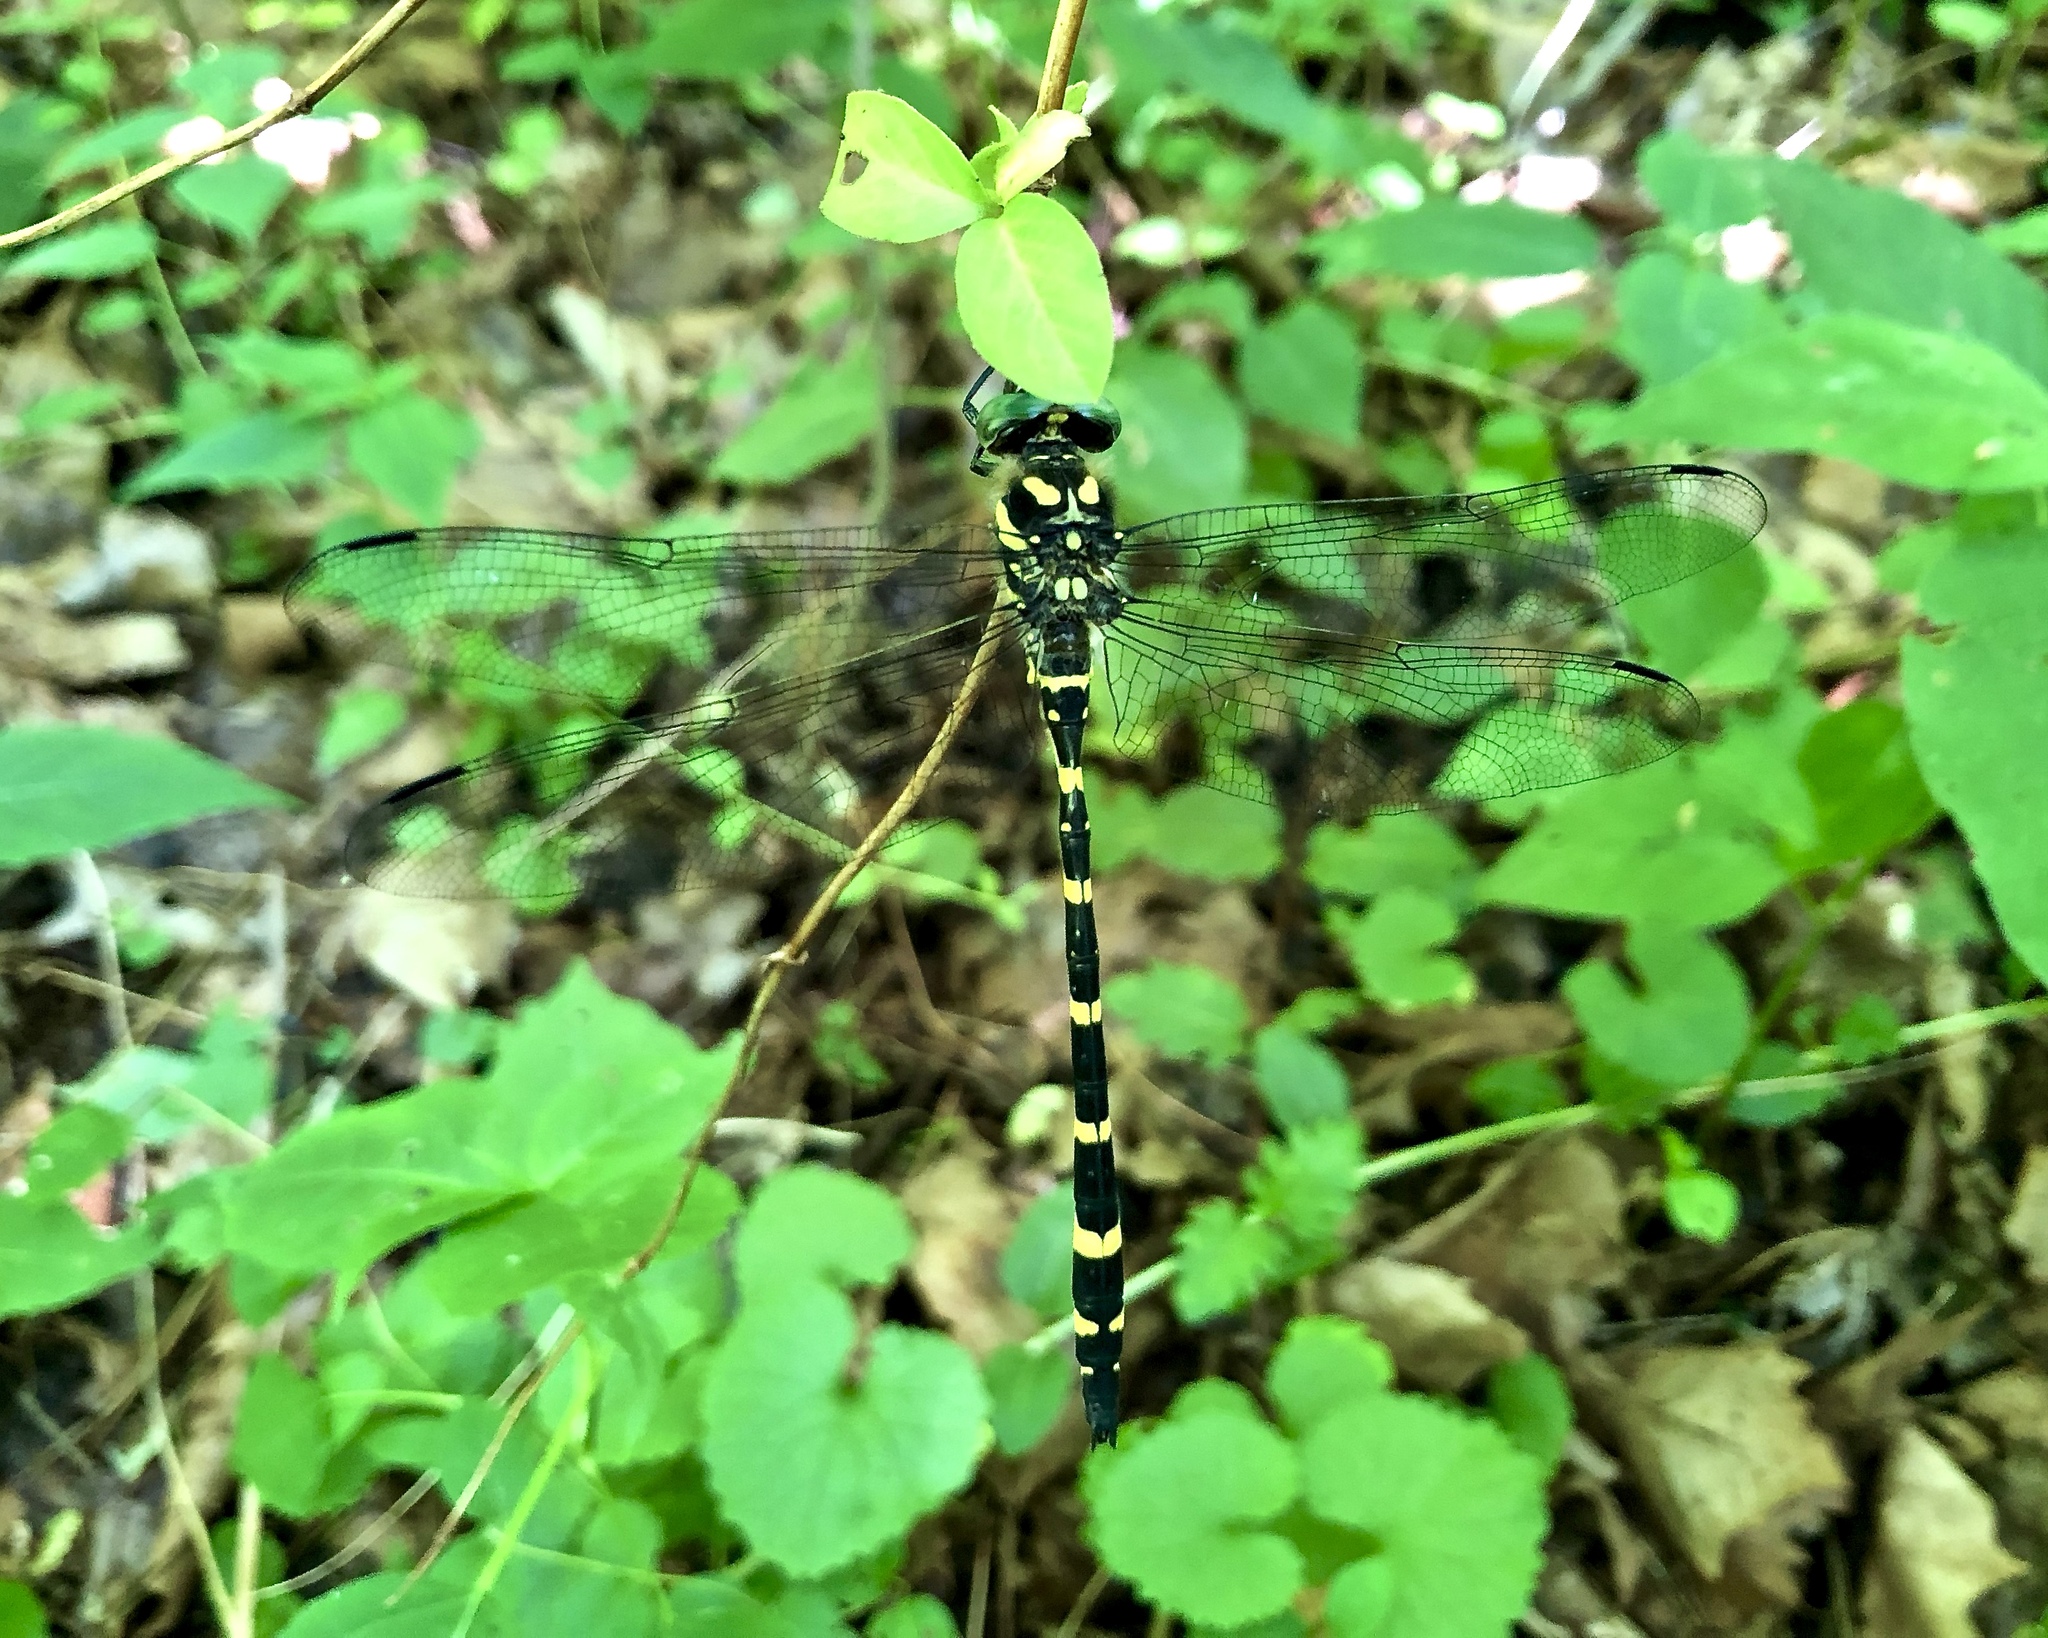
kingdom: Animalia
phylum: Arthropoda
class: Insecta
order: Odonata
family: Cordulegastridae
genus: Cordulegaster
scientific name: Cordulegaster erronea
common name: Tiger spiketail
